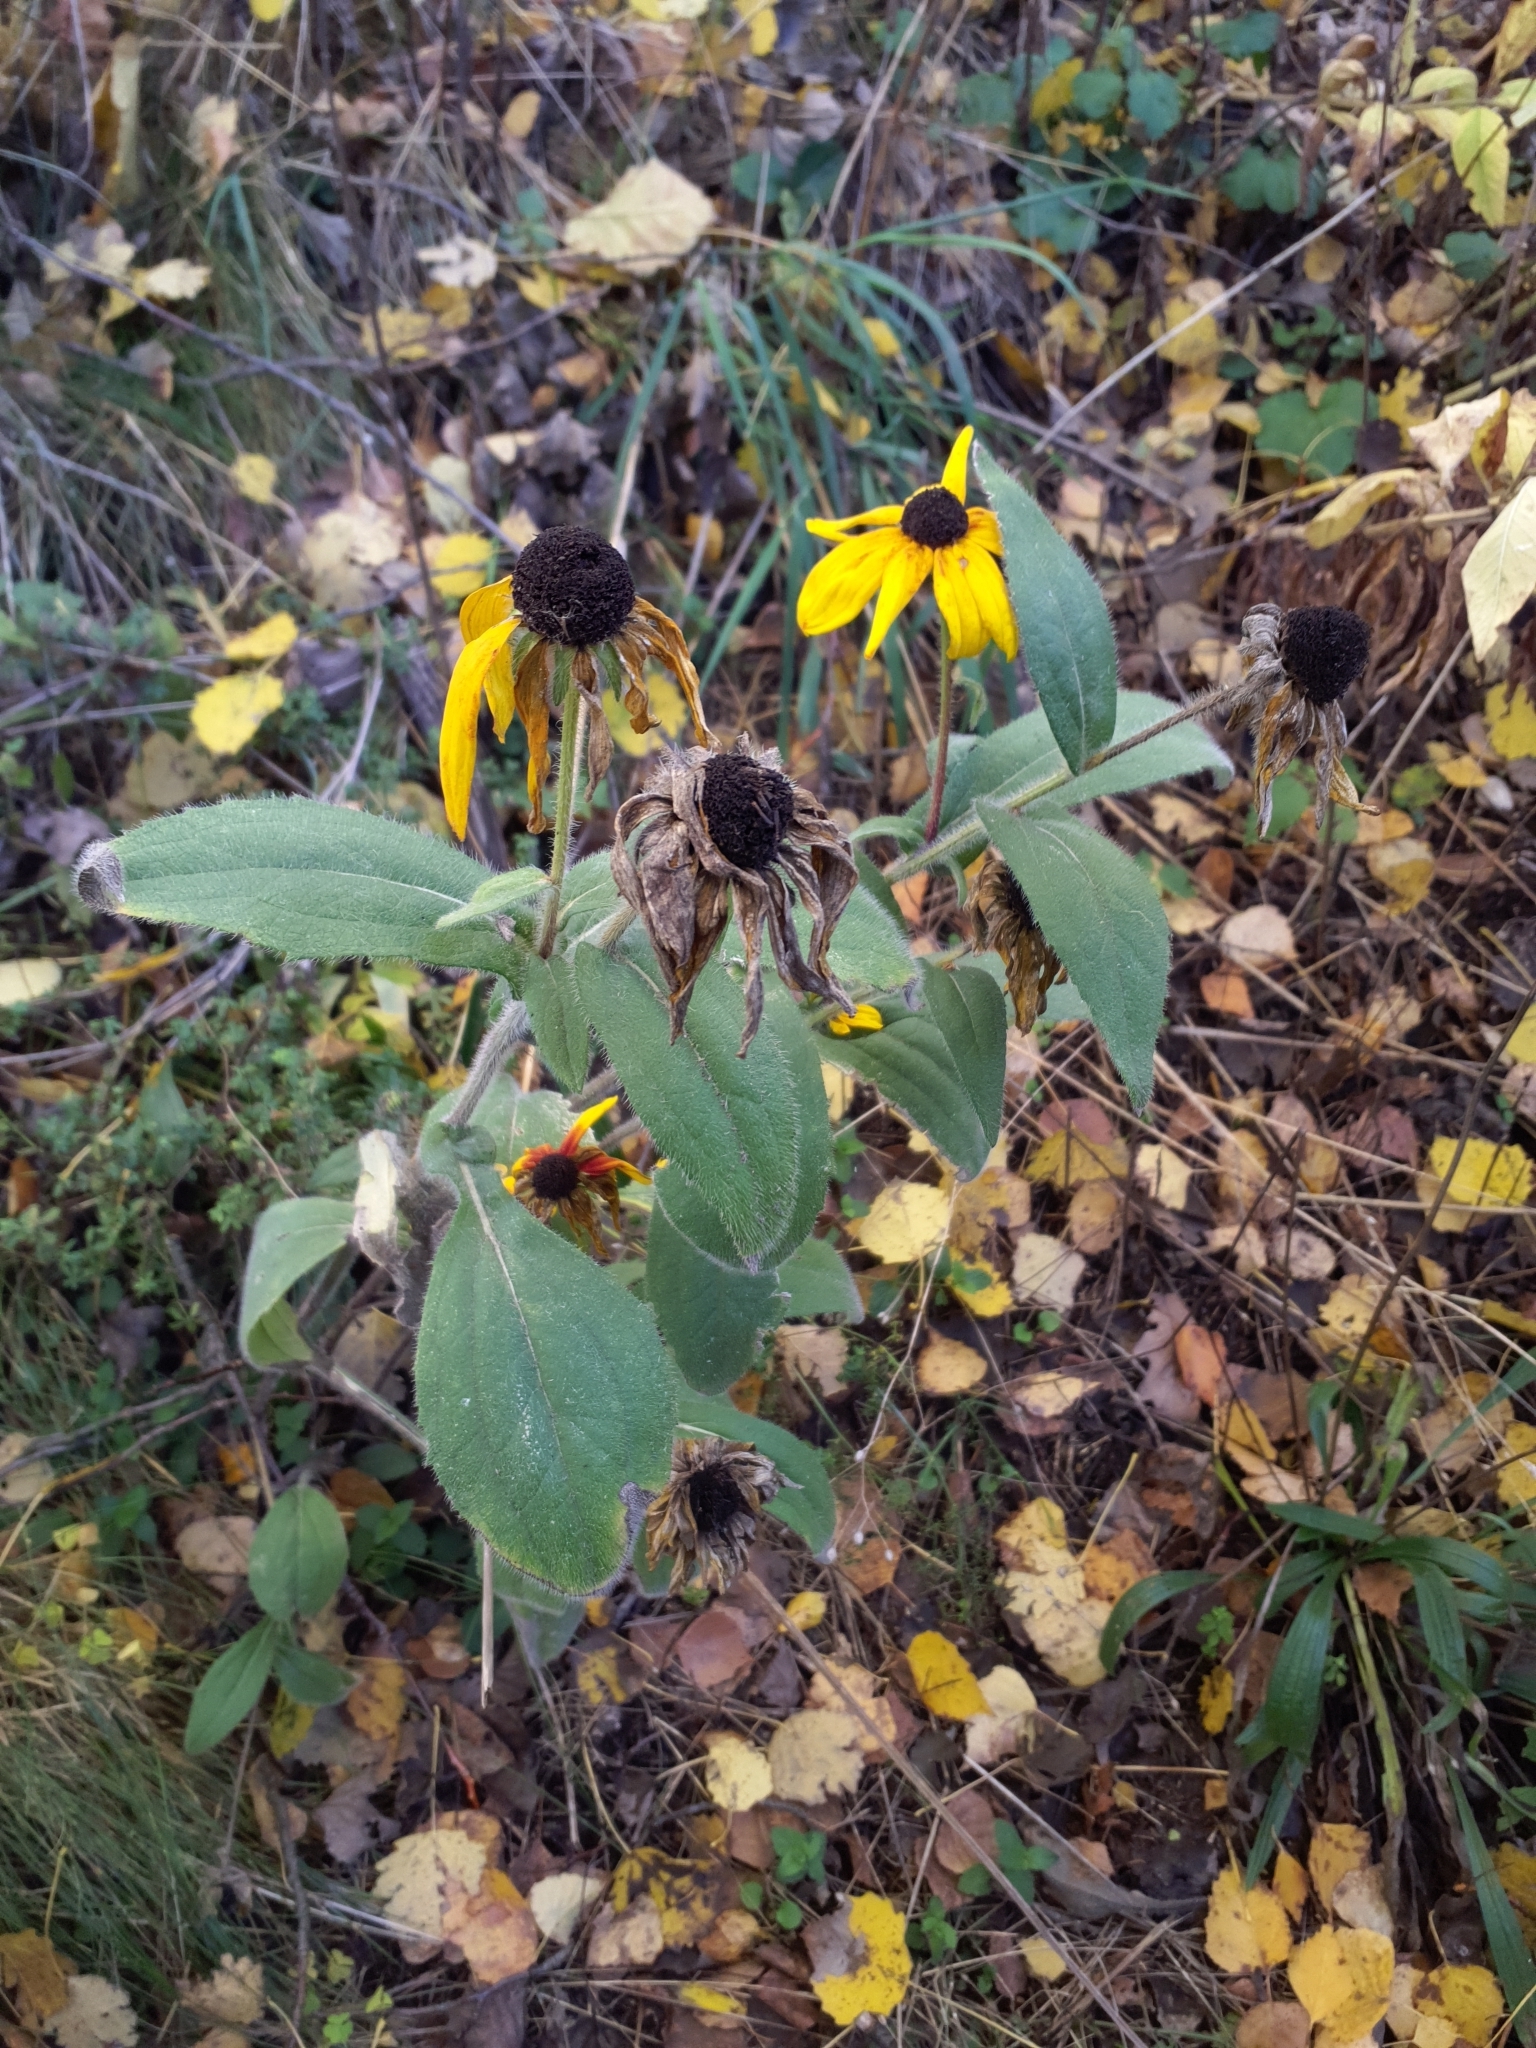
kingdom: Plantae
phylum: Tracheophyta
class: Magnoliopsida
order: Asterales
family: Asteraceae
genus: Rudbeckia
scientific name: Rudbeckia hirta
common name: Black-eyed-susan
